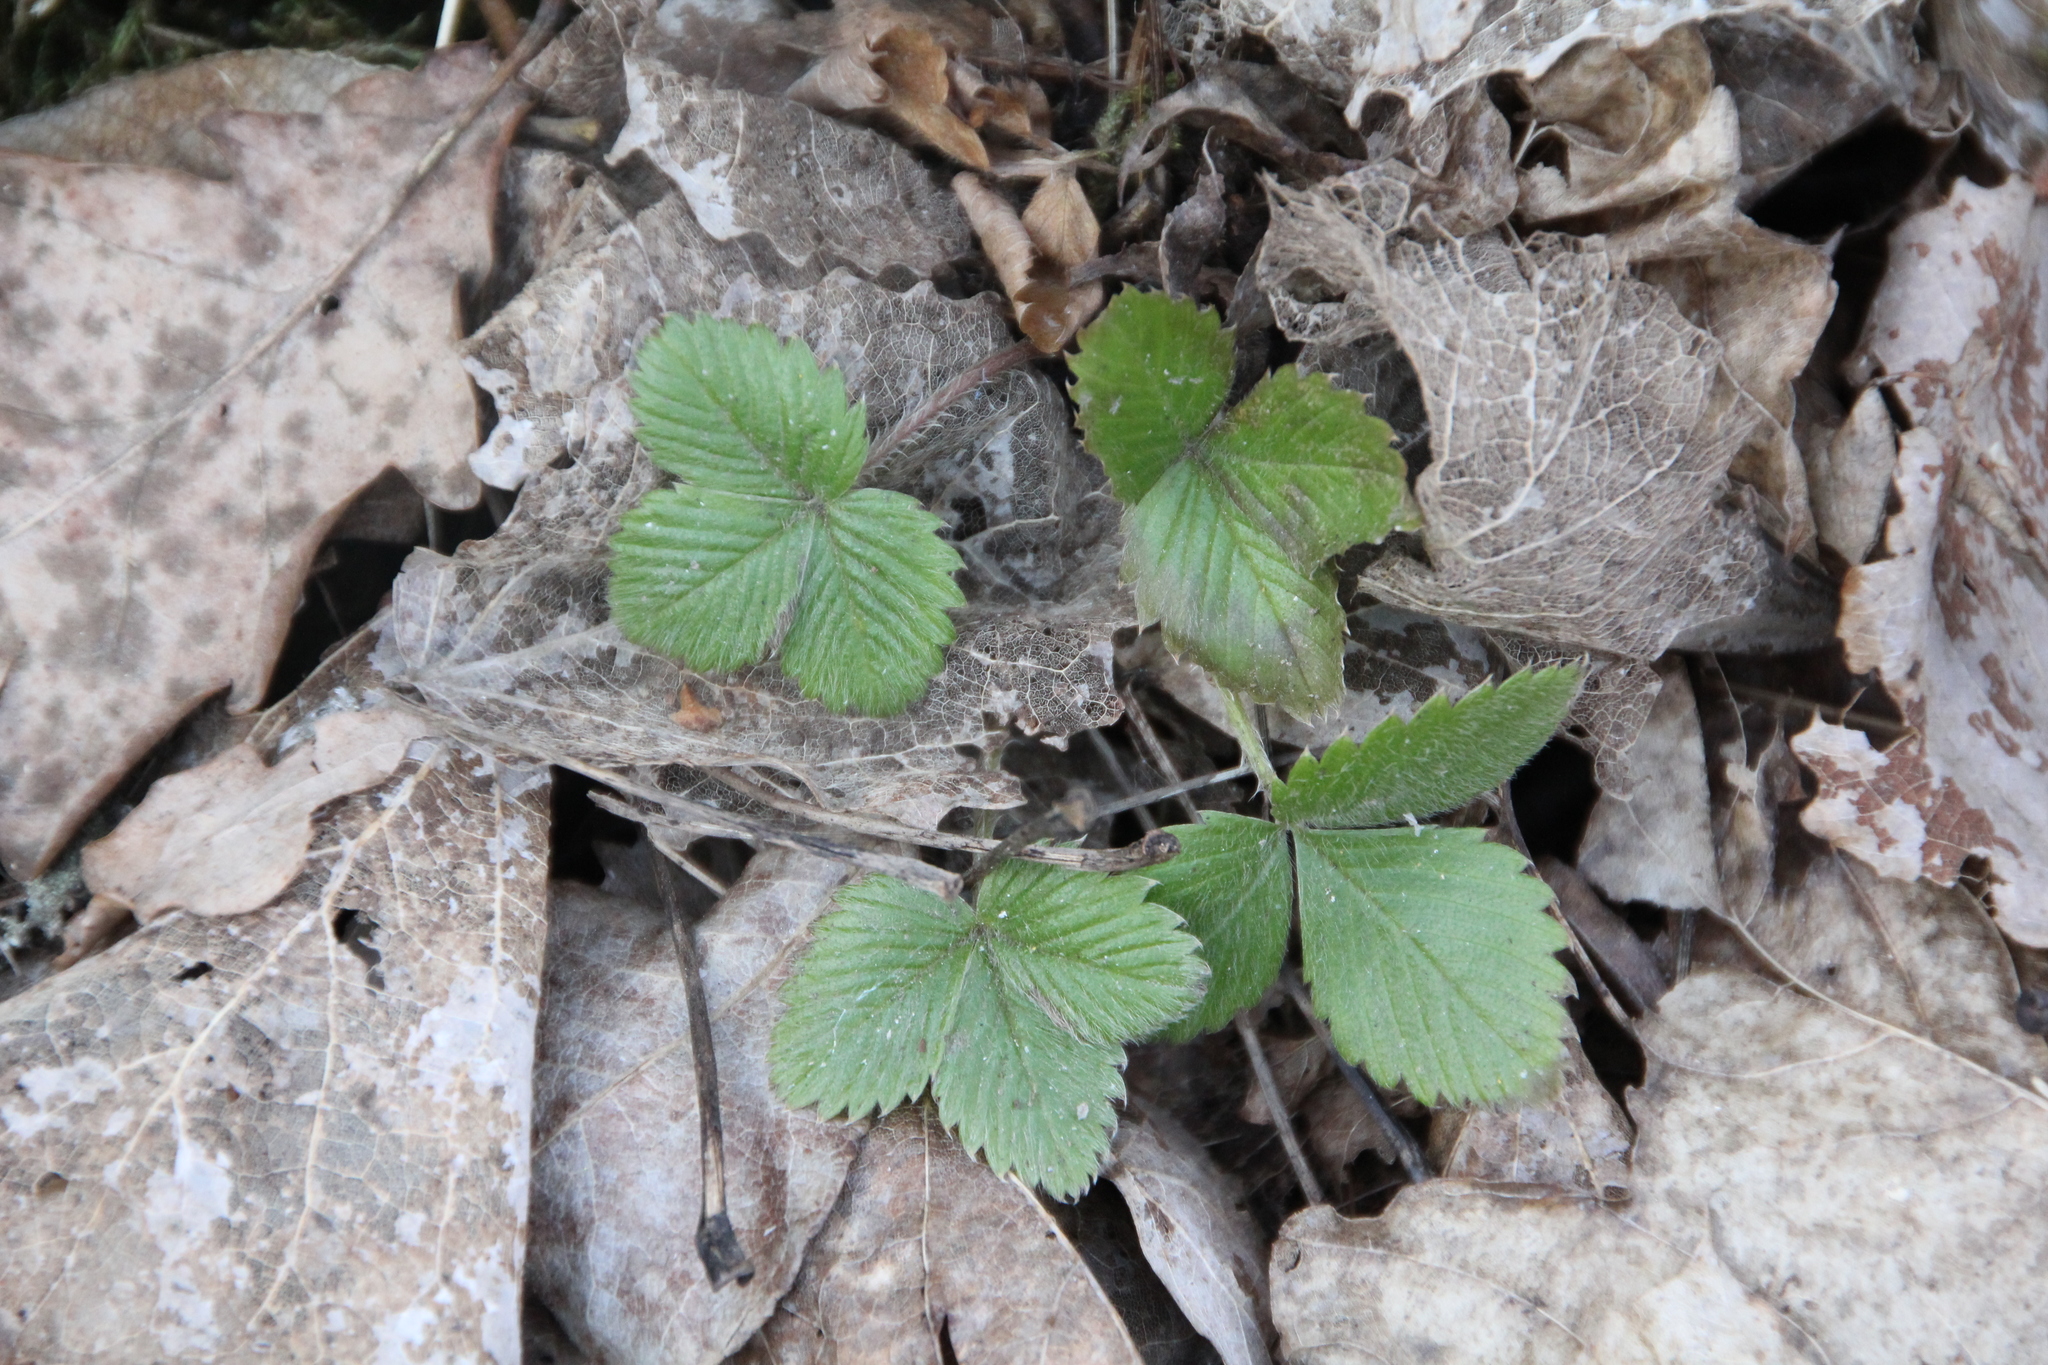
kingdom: Plantae
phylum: Tracheophyta
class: Magnoliopsida
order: Rosales
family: Rosaceae
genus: Fragaria
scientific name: Fragaria vesca
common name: Wild strawberry
